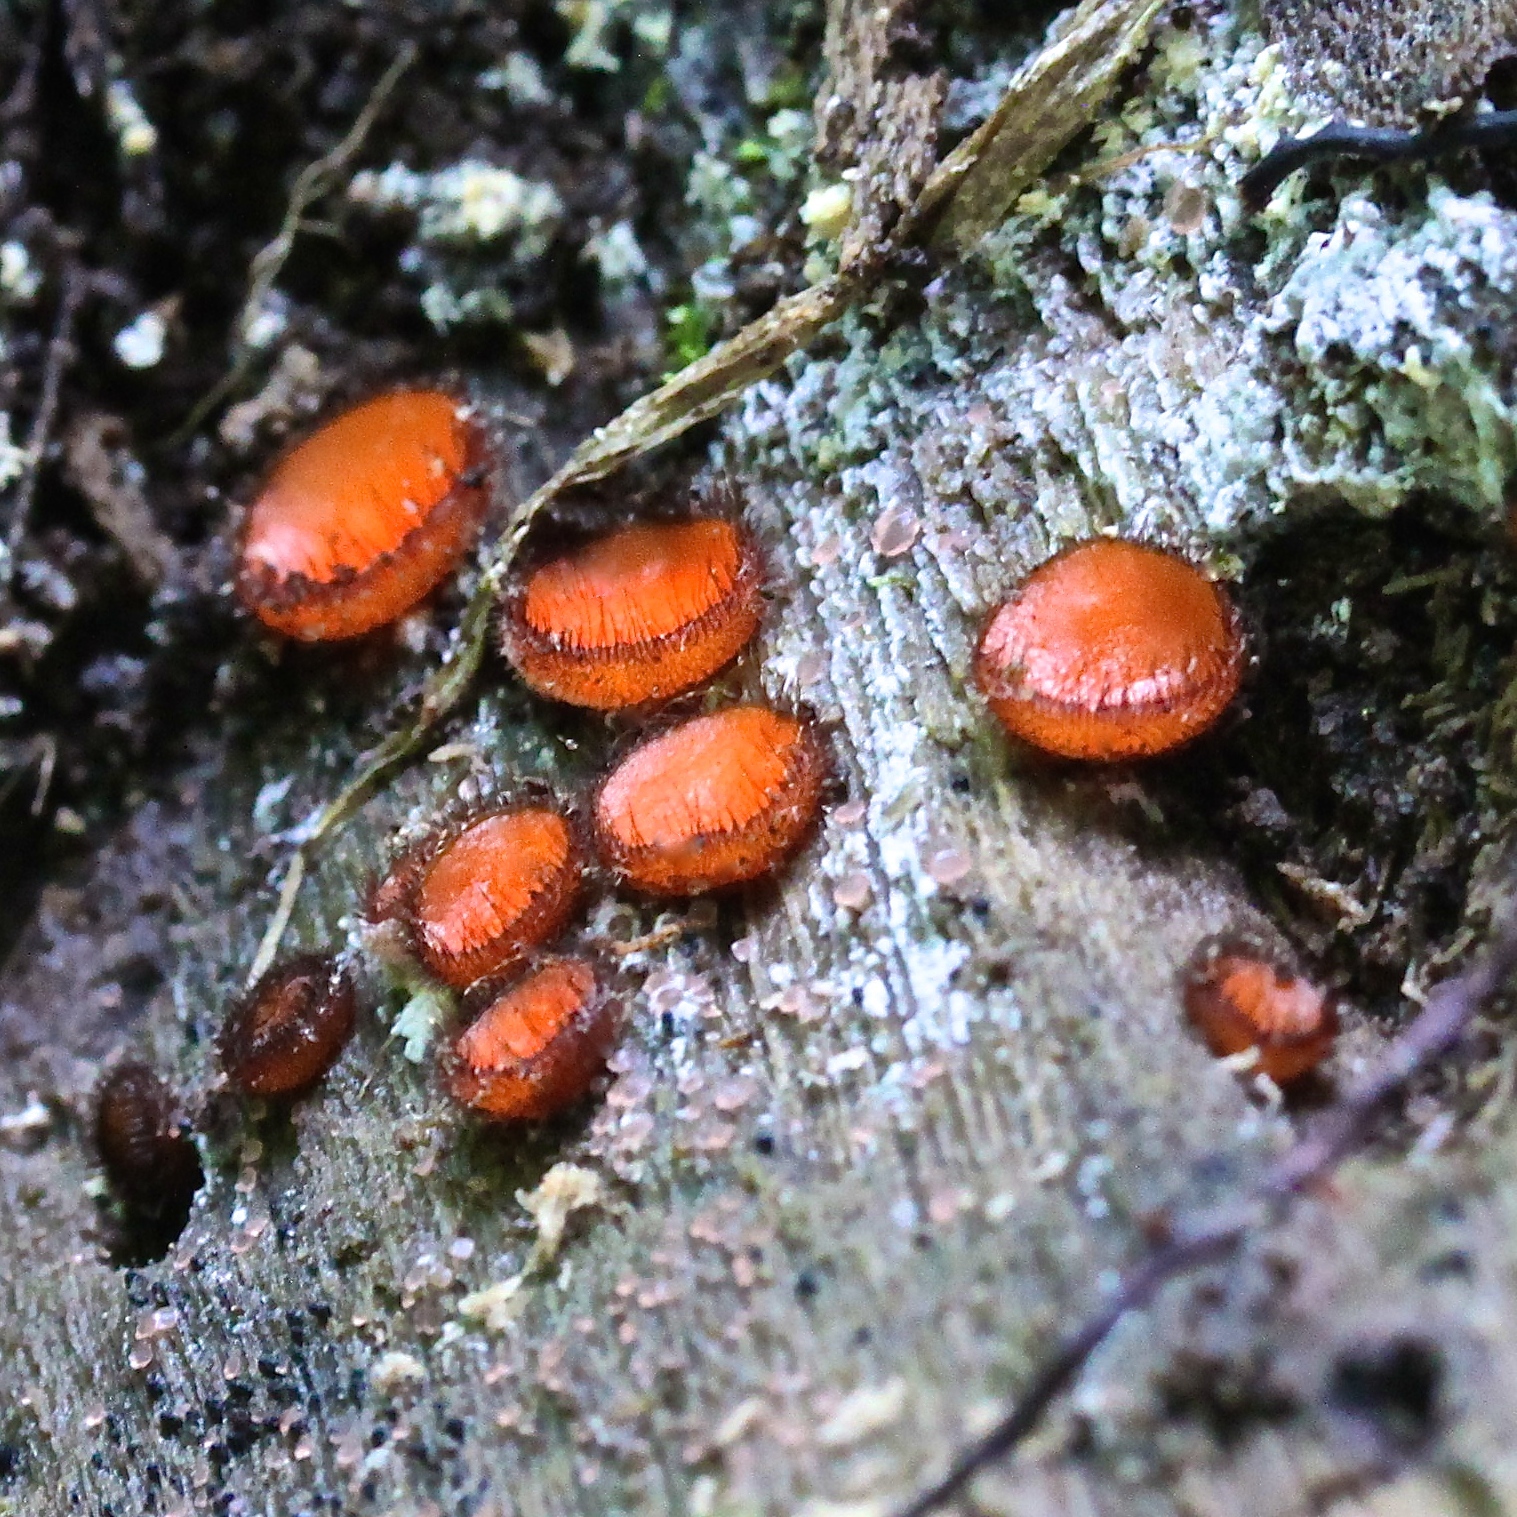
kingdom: Fungi
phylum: Ascomycota
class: Pezizomycetes
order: Pezizales
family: Pyronemataceae
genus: Scutellinia
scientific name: Scutellinia scutellata
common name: Common eyelash
